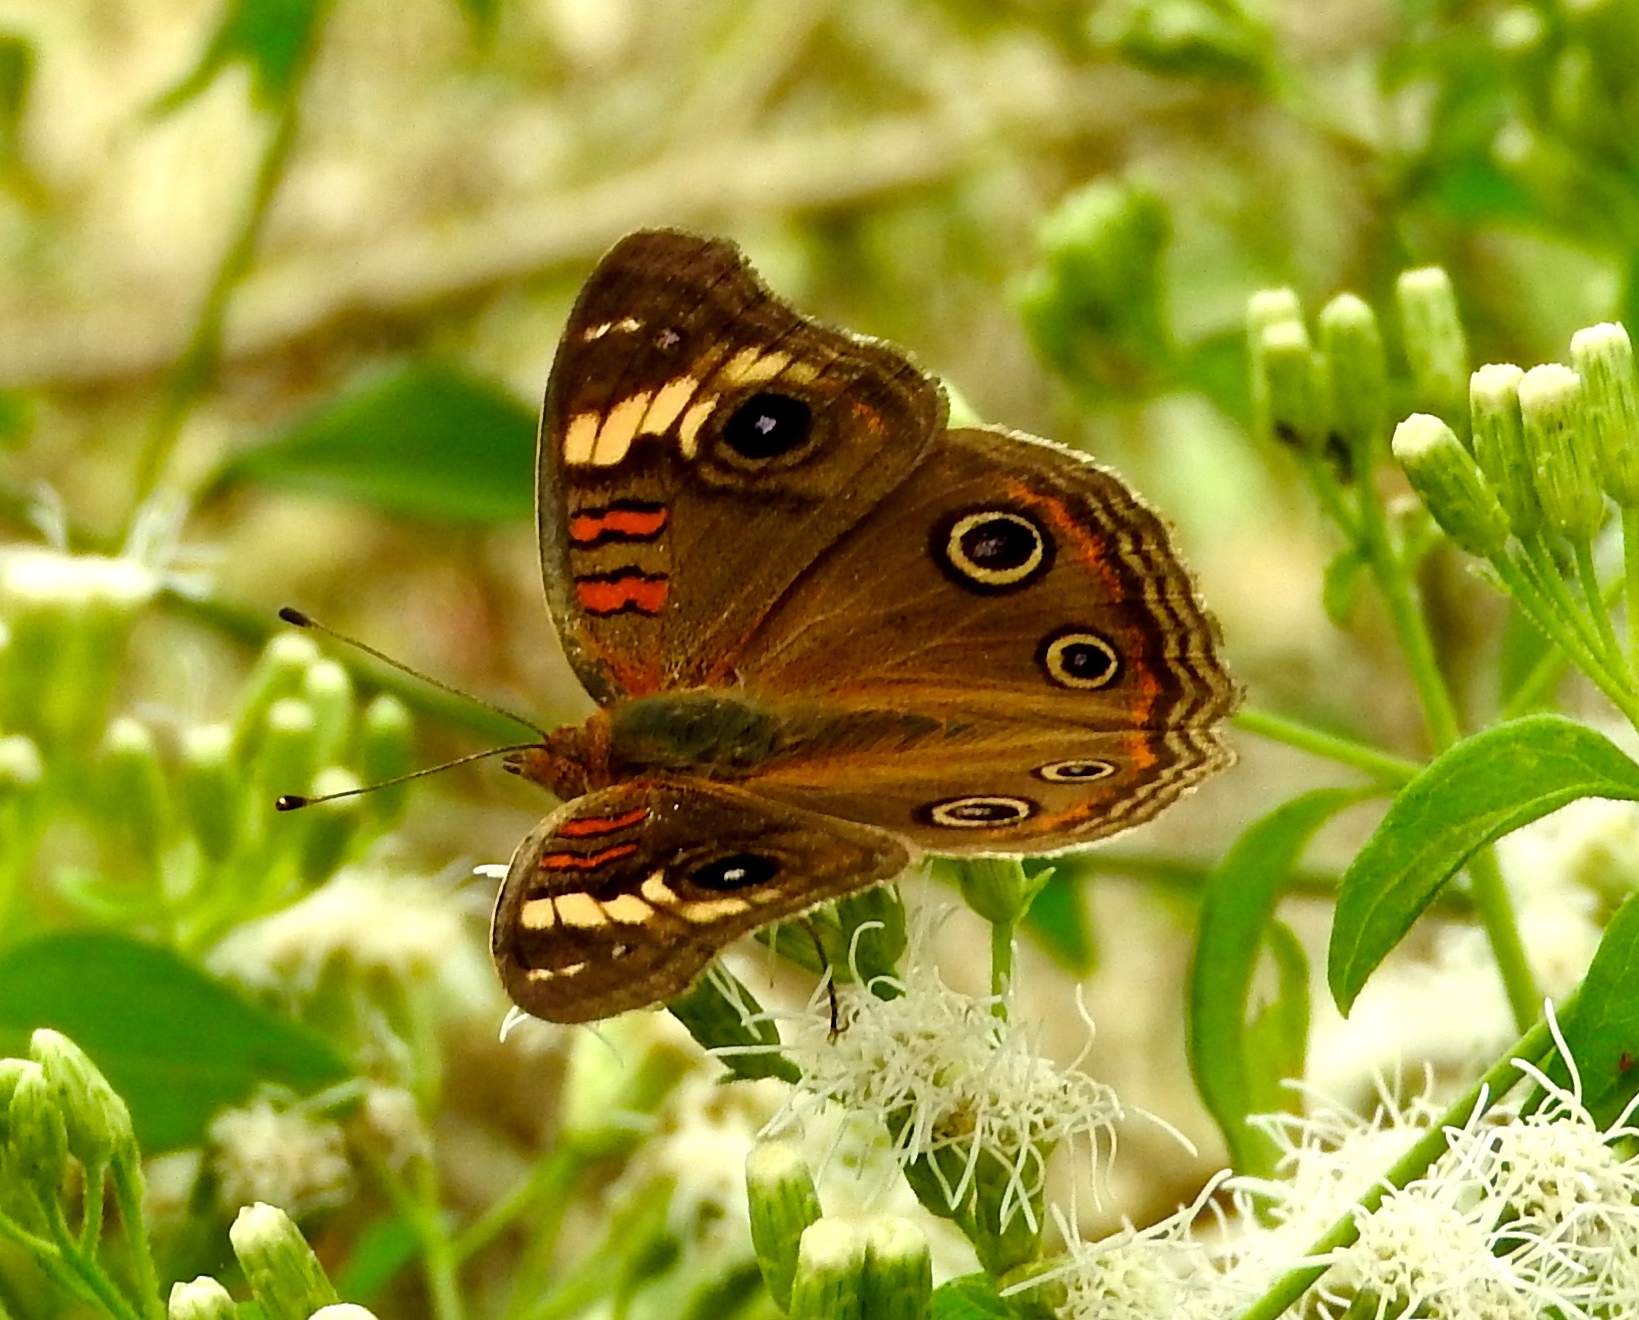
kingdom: Animalia
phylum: Arthropoda
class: Insecta
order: Lepidoptera
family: Nymphalidae
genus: Junonia
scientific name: Junonia pacoma
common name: Pacific mangrove buckeye
